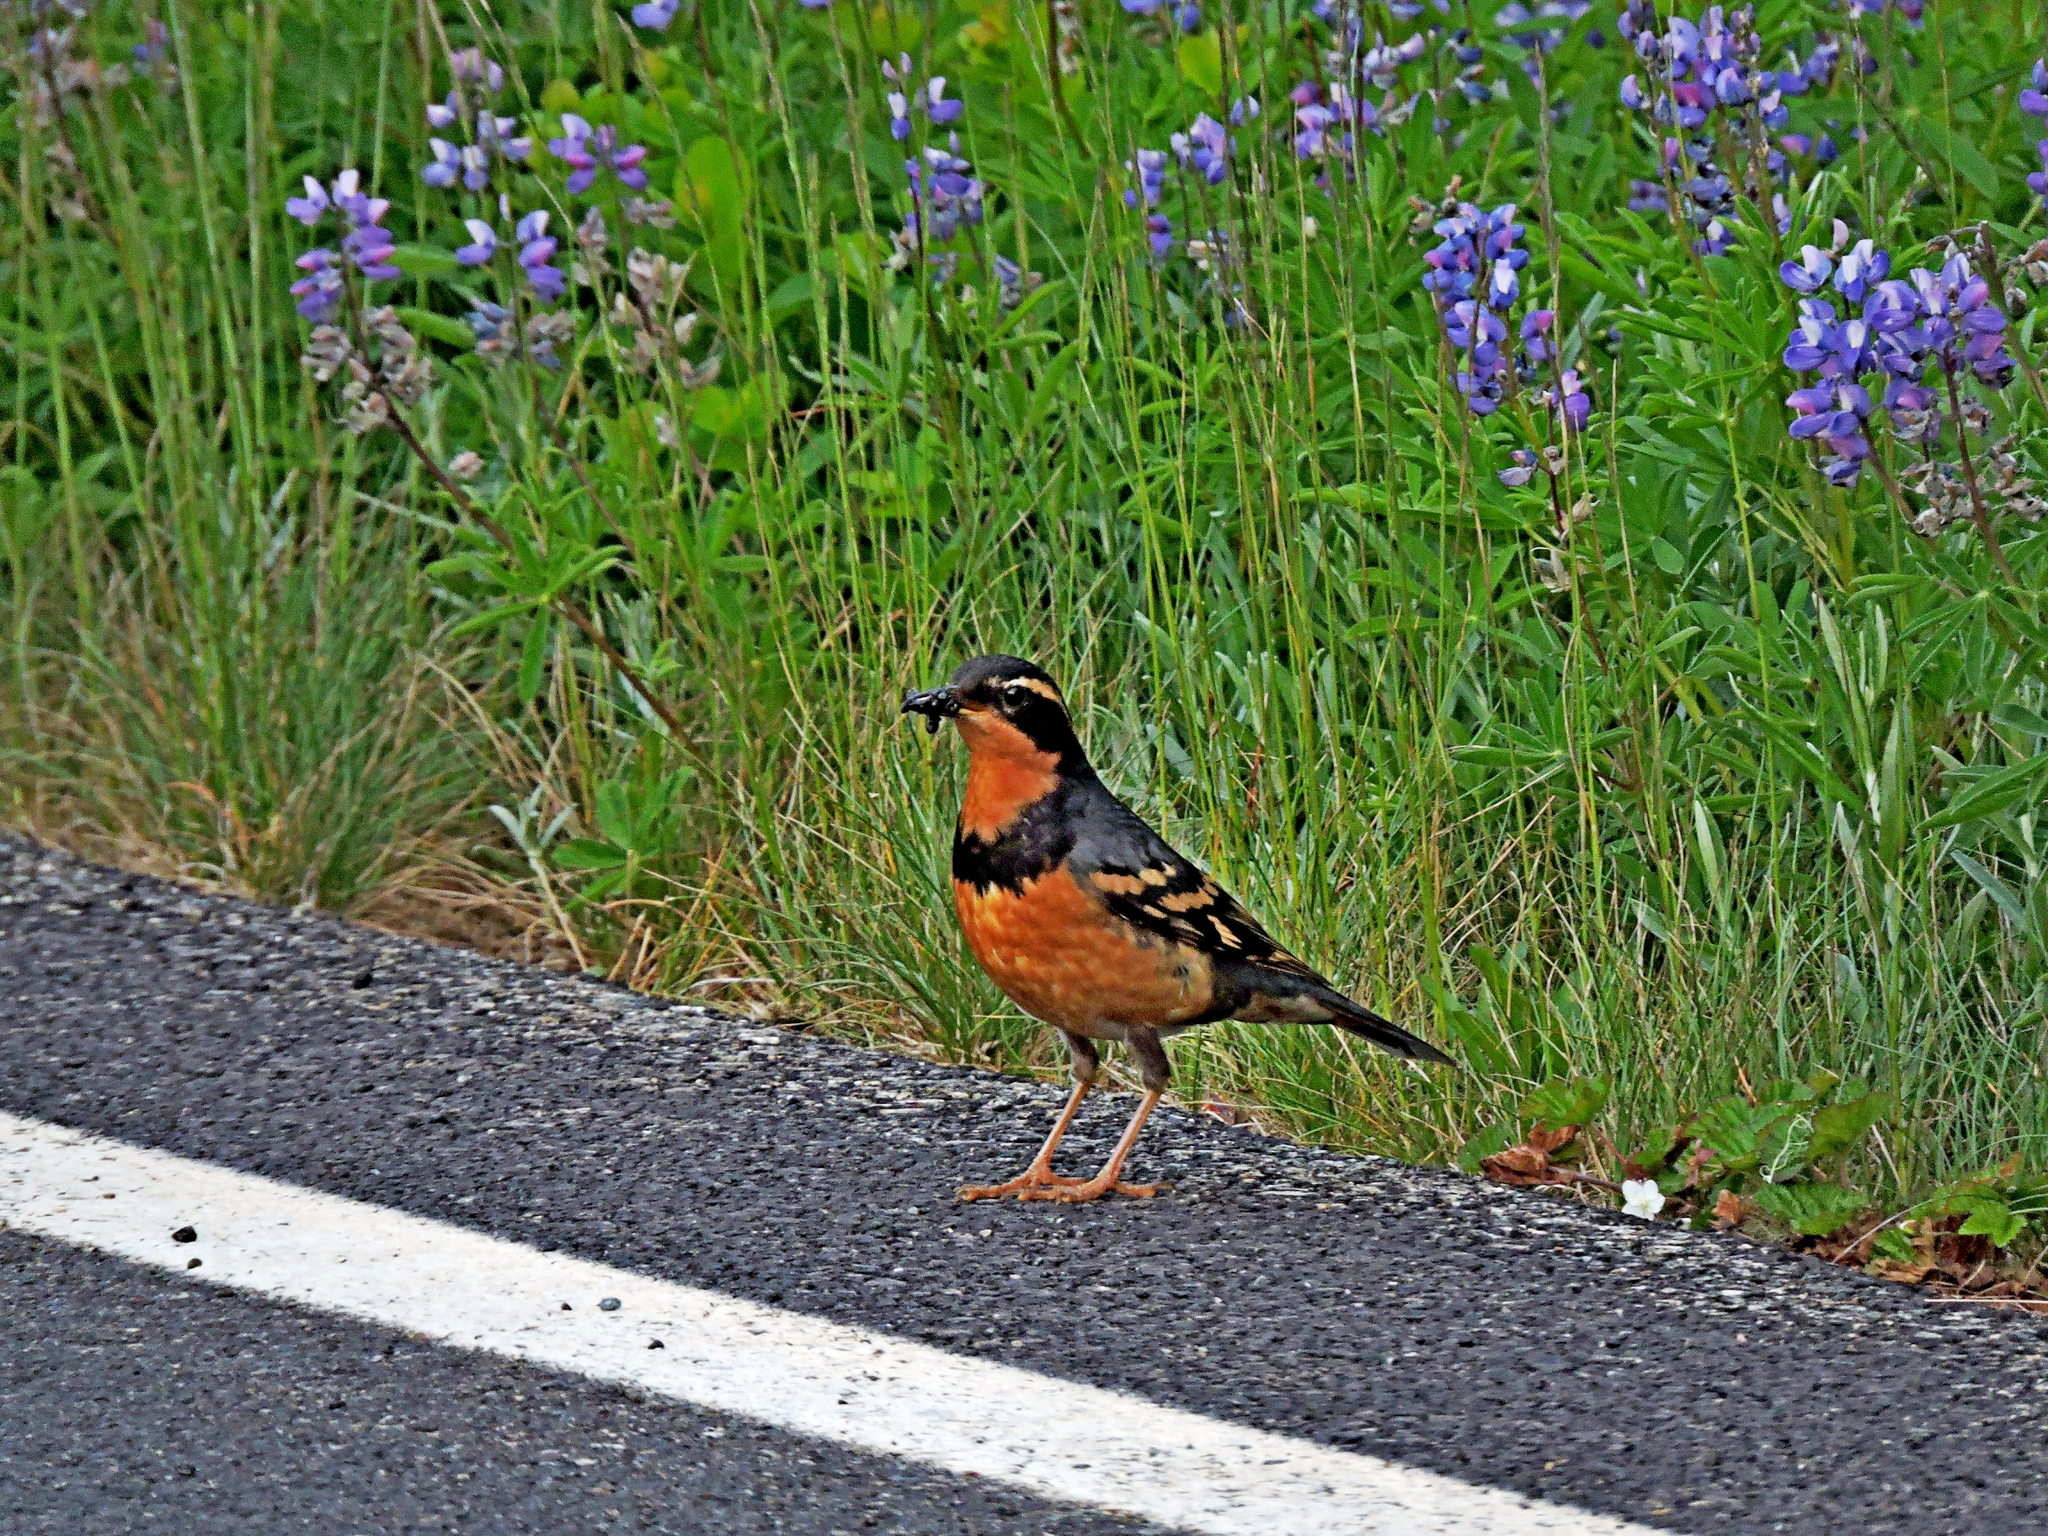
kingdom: Animalia
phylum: Chordata
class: Aves
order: Passeriformes
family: Turdidae
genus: Ixoreus
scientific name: Ixoreus naevius
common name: Varied thrush
